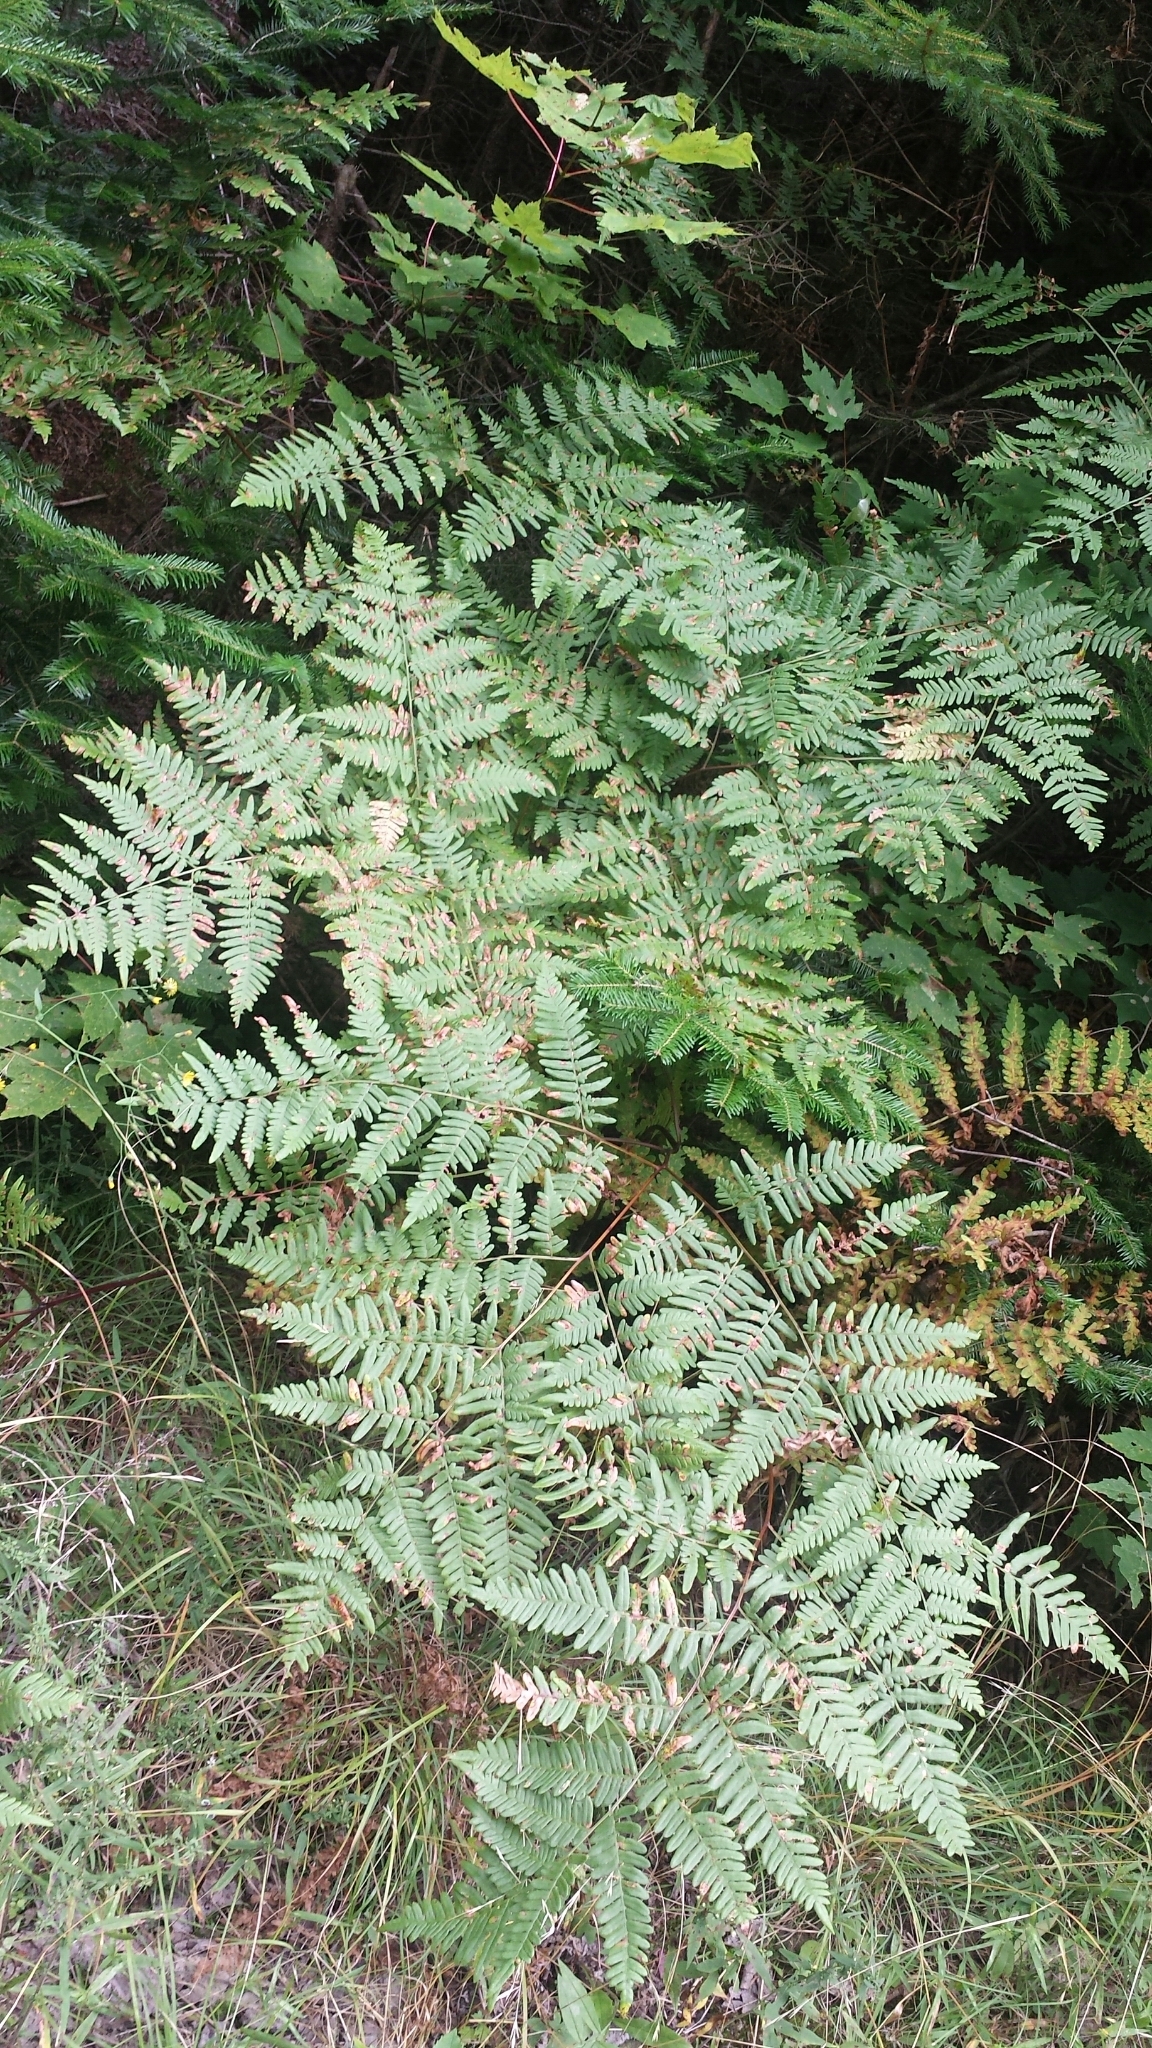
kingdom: Plantae
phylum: Tracheophyta
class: Polypodiopsida
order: Polypodiales
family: Dennstaedtiaceae
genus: Pteridium
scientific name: Pteridium aquilinum
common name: Bracken
